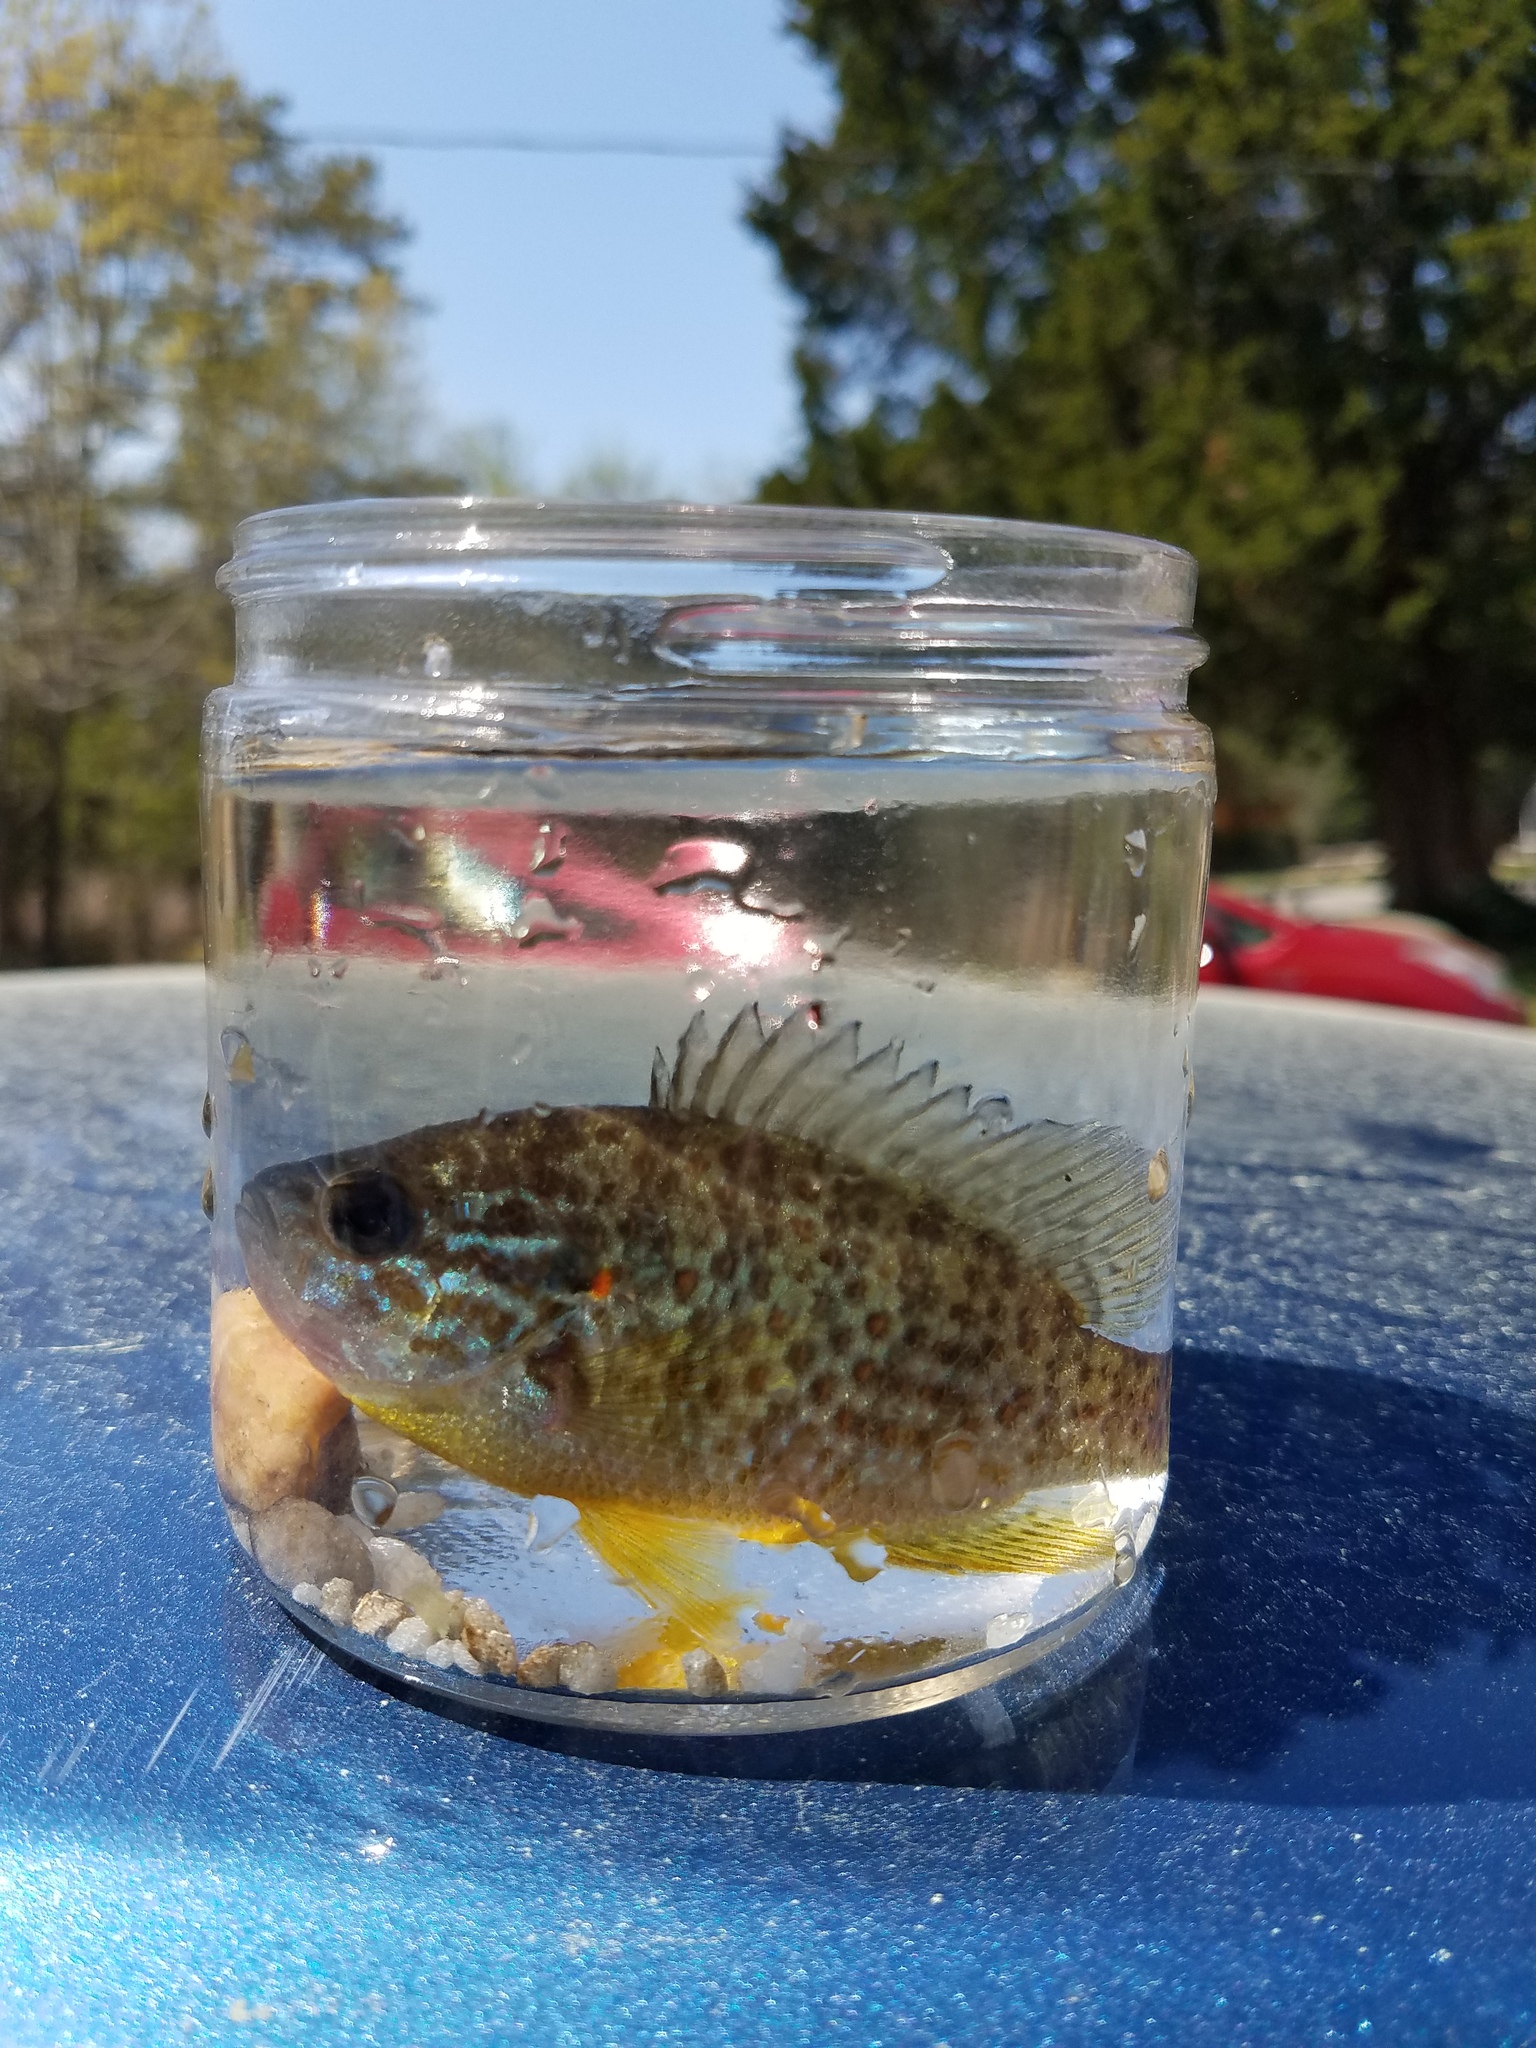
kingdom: Animalia
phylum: Chordata
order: Perciformes
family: Centrarchidae
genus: Lepomis
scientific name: Lepomis gibbosus
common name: Pumpkinseed
